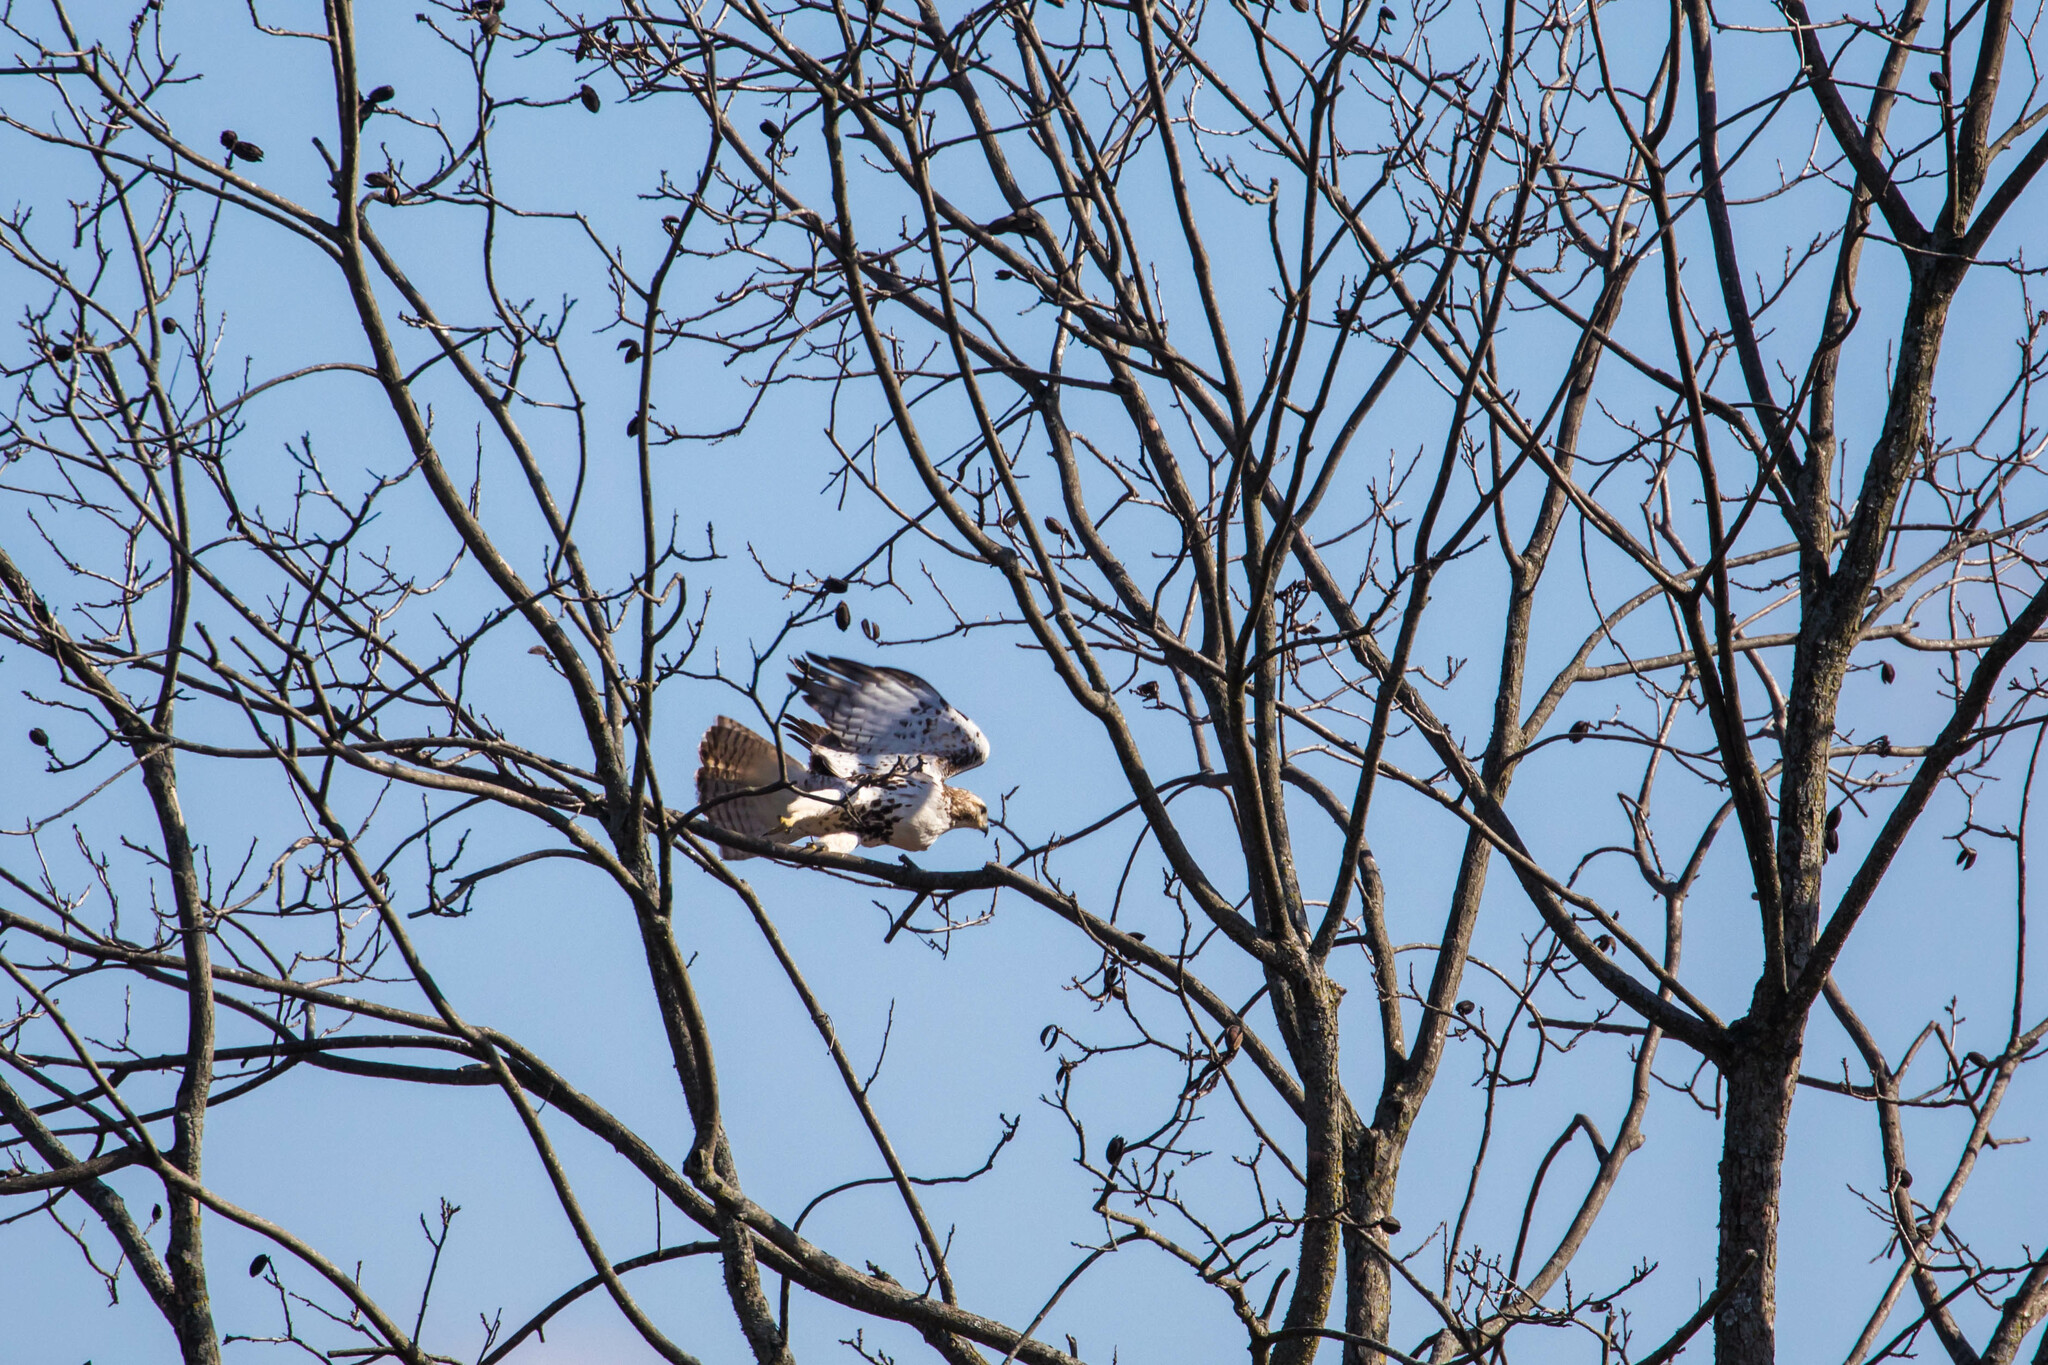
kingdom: Animalia
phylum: Chordata
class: Aves
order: Accipitriformes
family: Accipitridae
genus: Buteo
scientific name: Buteo jamaicensis
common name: Red-tailed hawk
